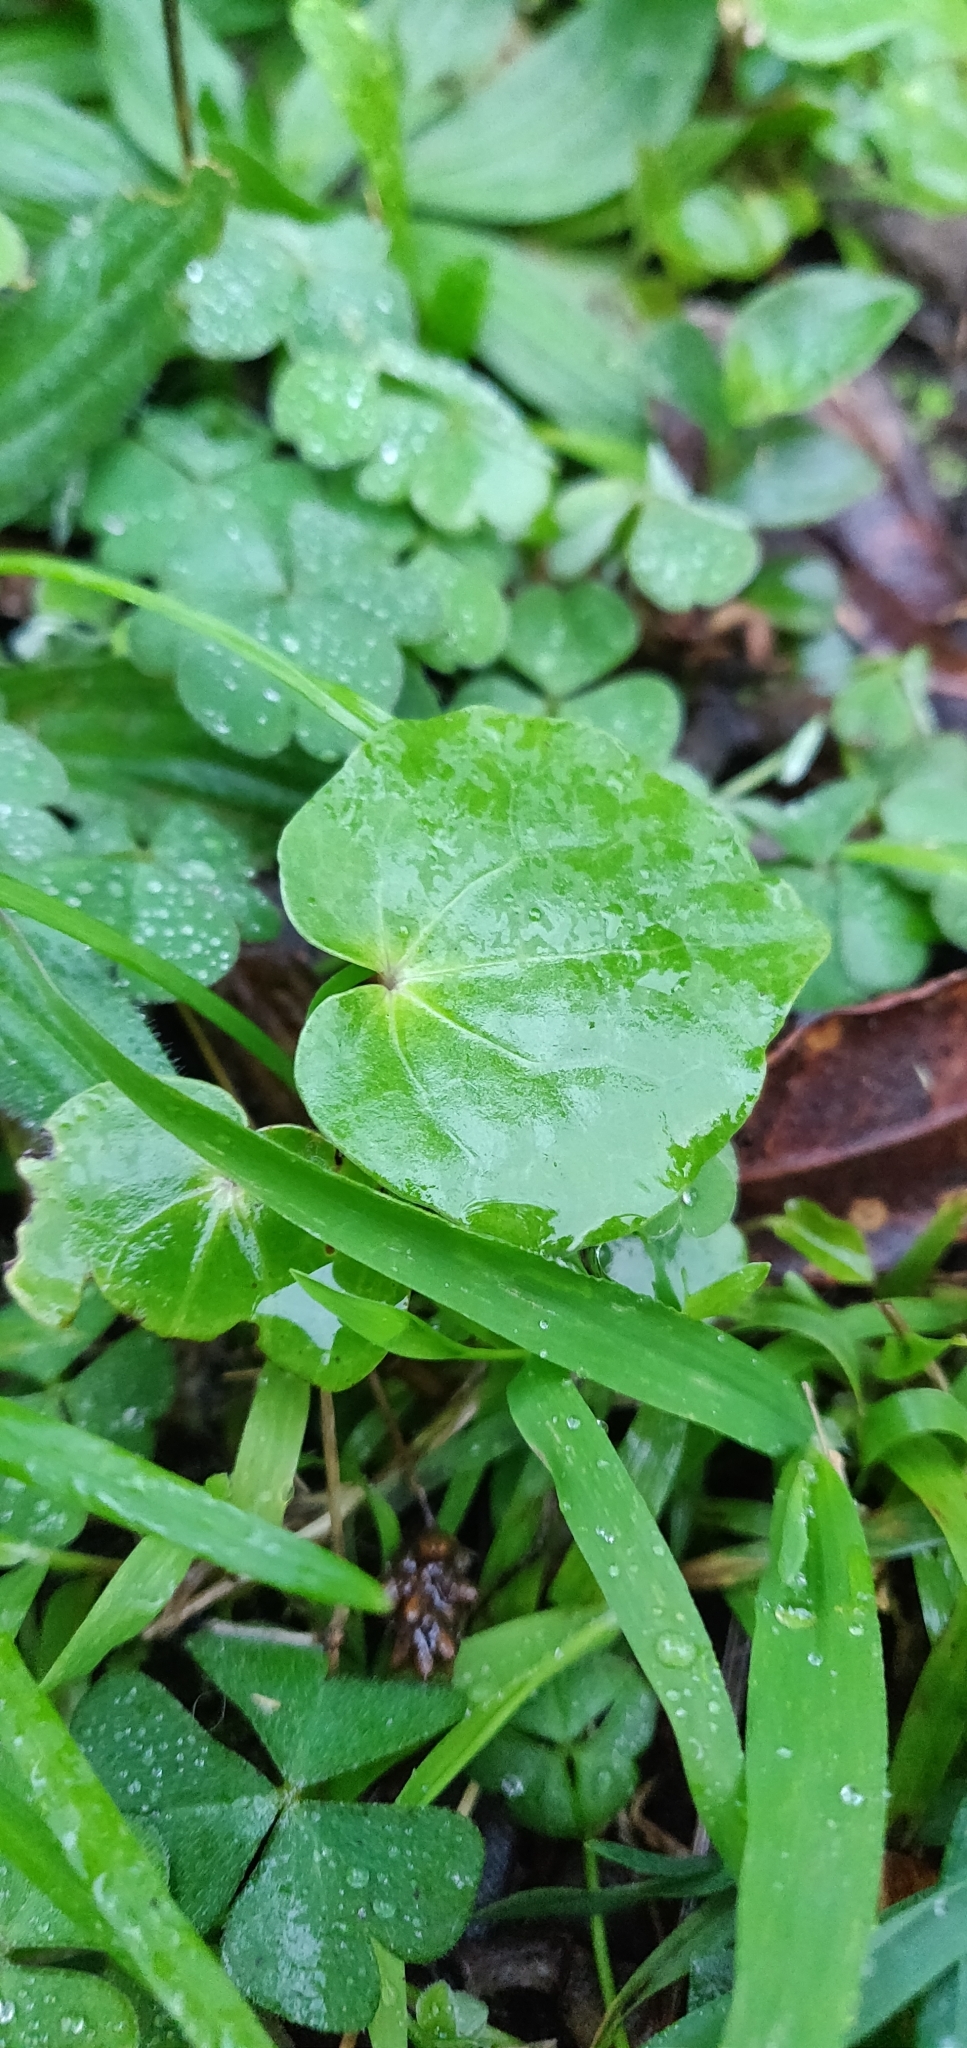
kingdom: Plantae
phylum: Tracheophyta
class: Magnoliopsida
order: Piperales
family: Piperaceae
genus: Macropiper
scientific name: Macropiper excelsum
